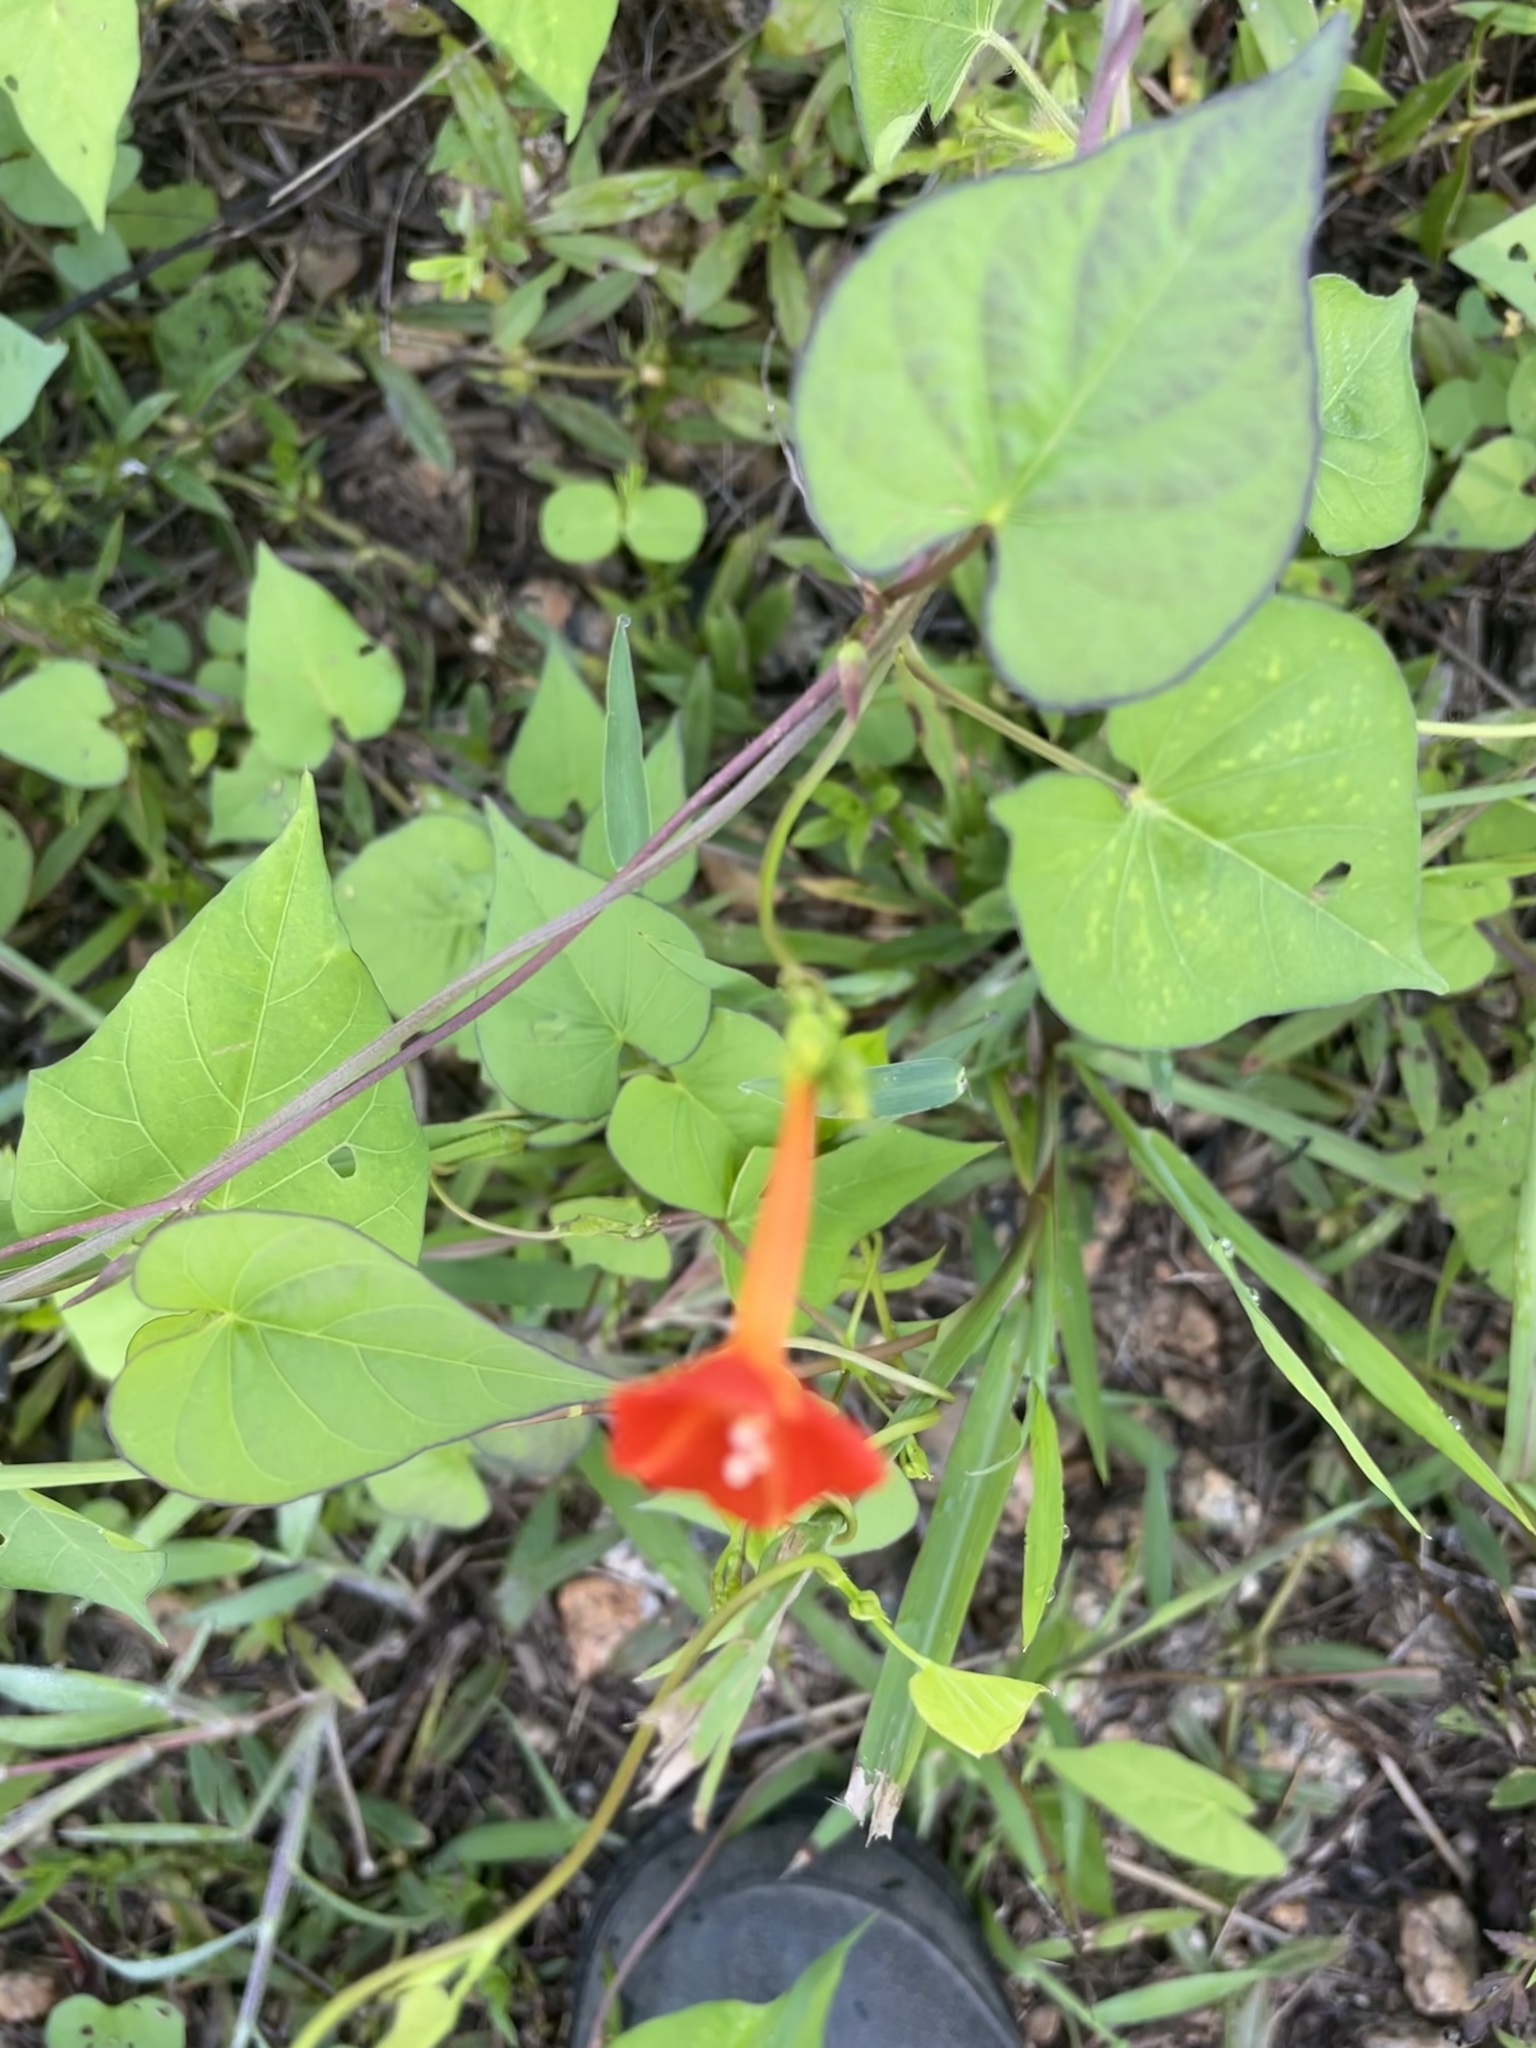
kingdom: Plantae
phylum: Tracheophyta
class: Magnoliopsida
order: Solanales
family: Convolvulaceae
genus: Ipomoea
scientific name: Ipomoea coccinea
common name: Red morning-glory
